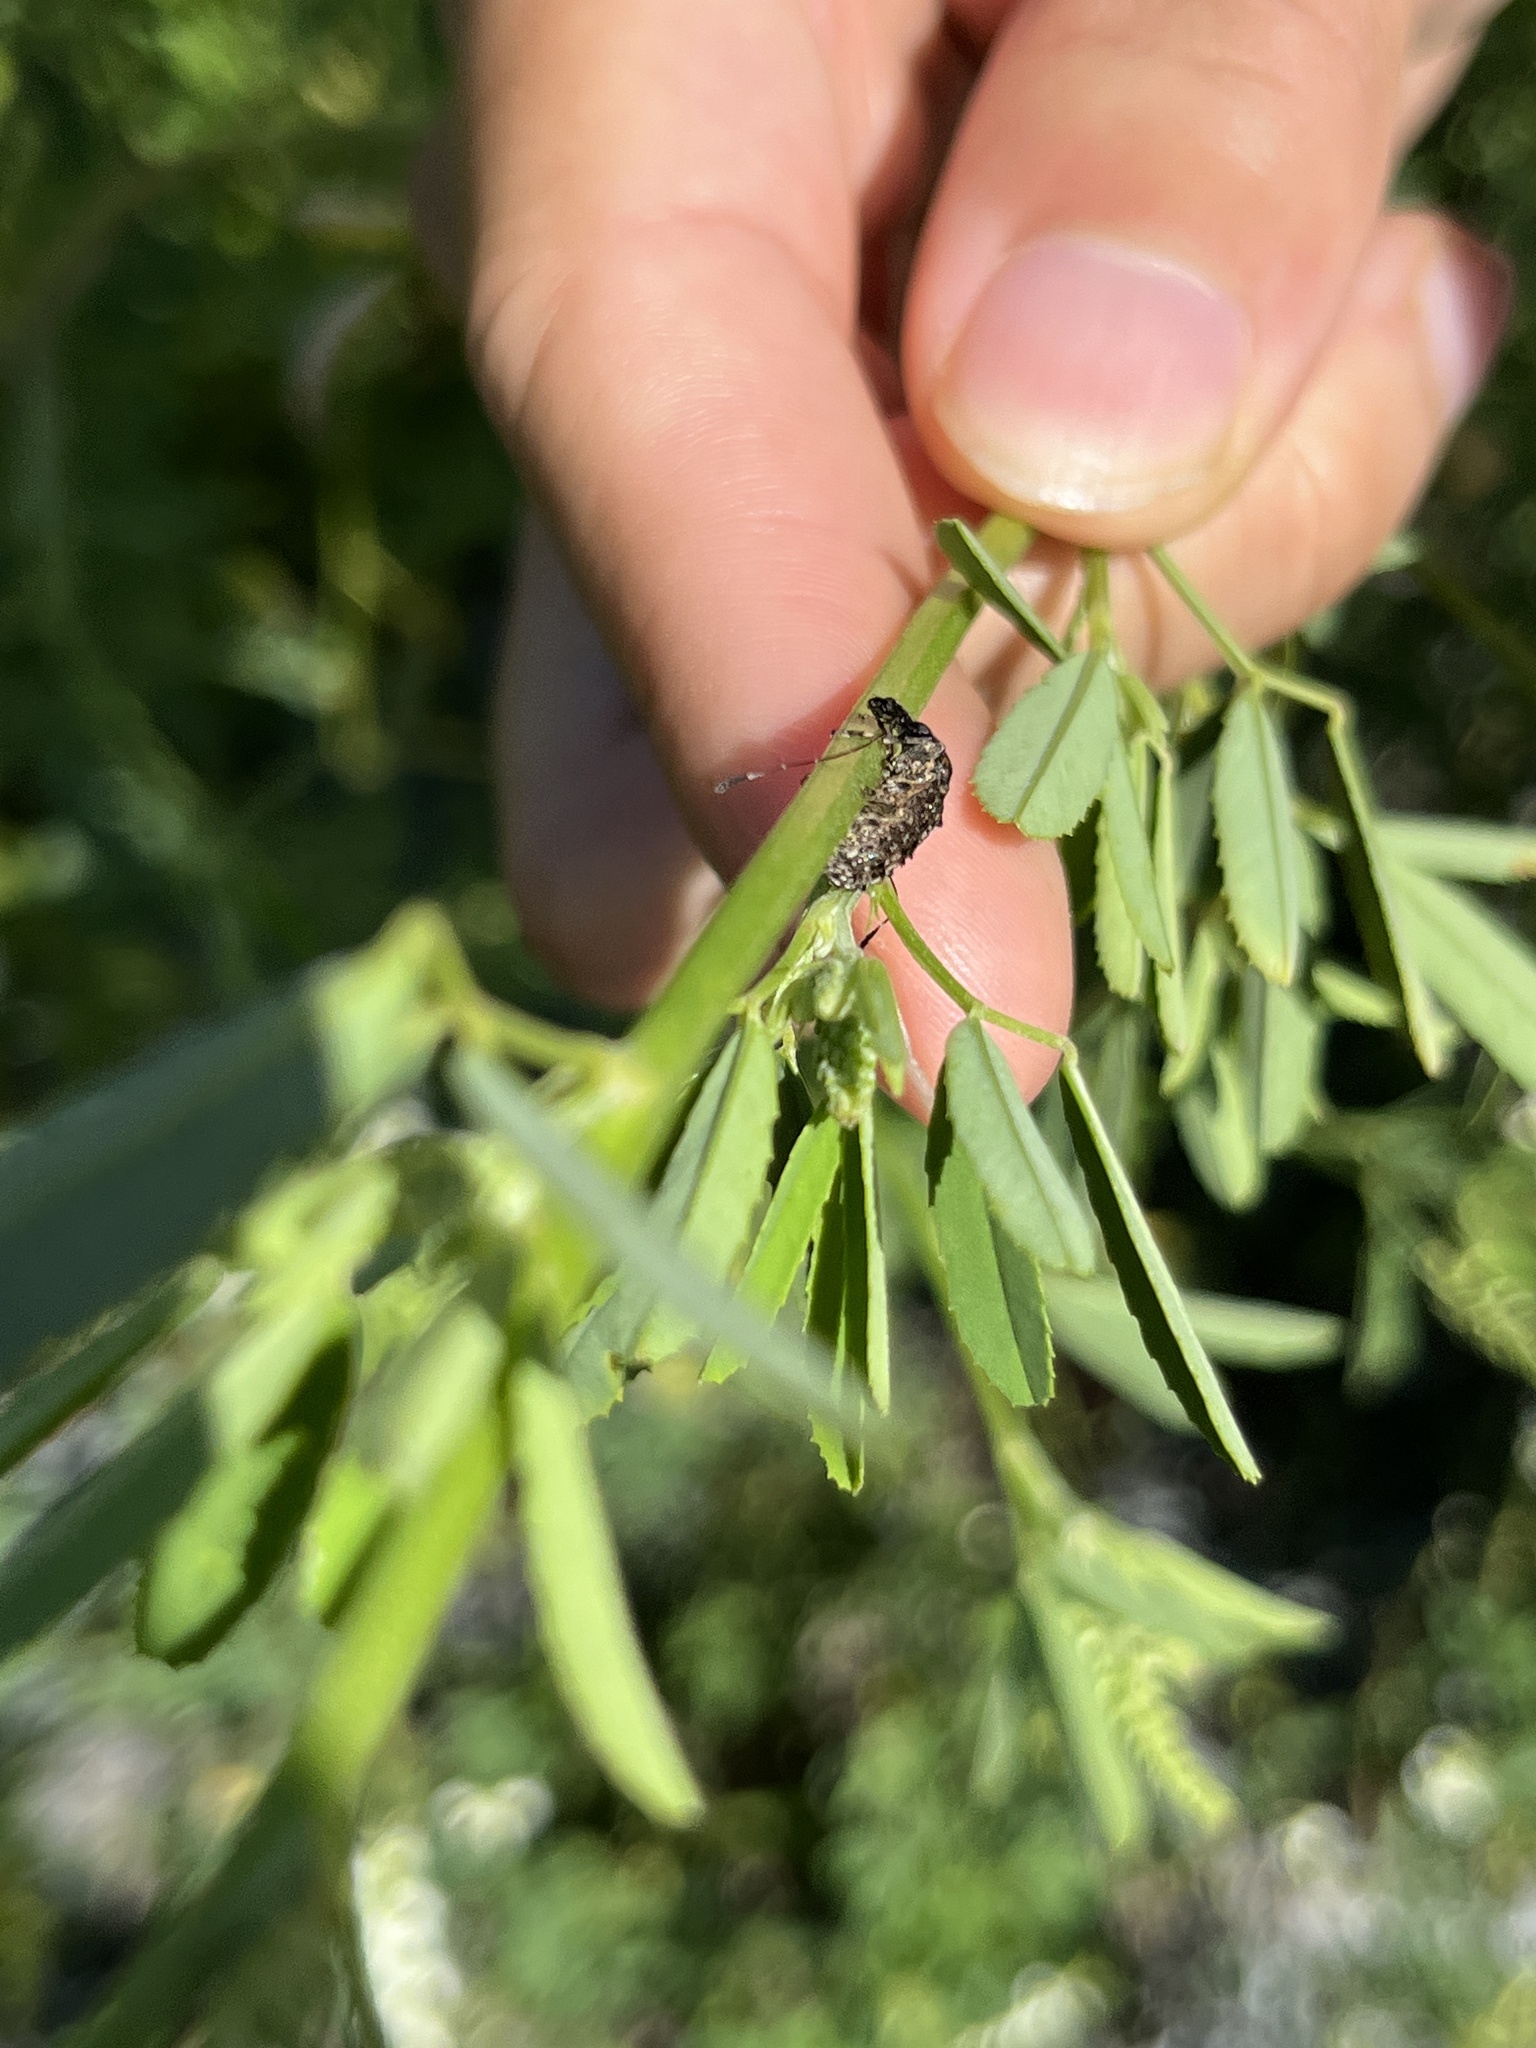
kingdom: Animalia
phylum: Arthropoda
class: Insecta
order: Coleoptera
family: Anthribidae
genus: Meconemus
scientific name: Meconemus infuscatus
